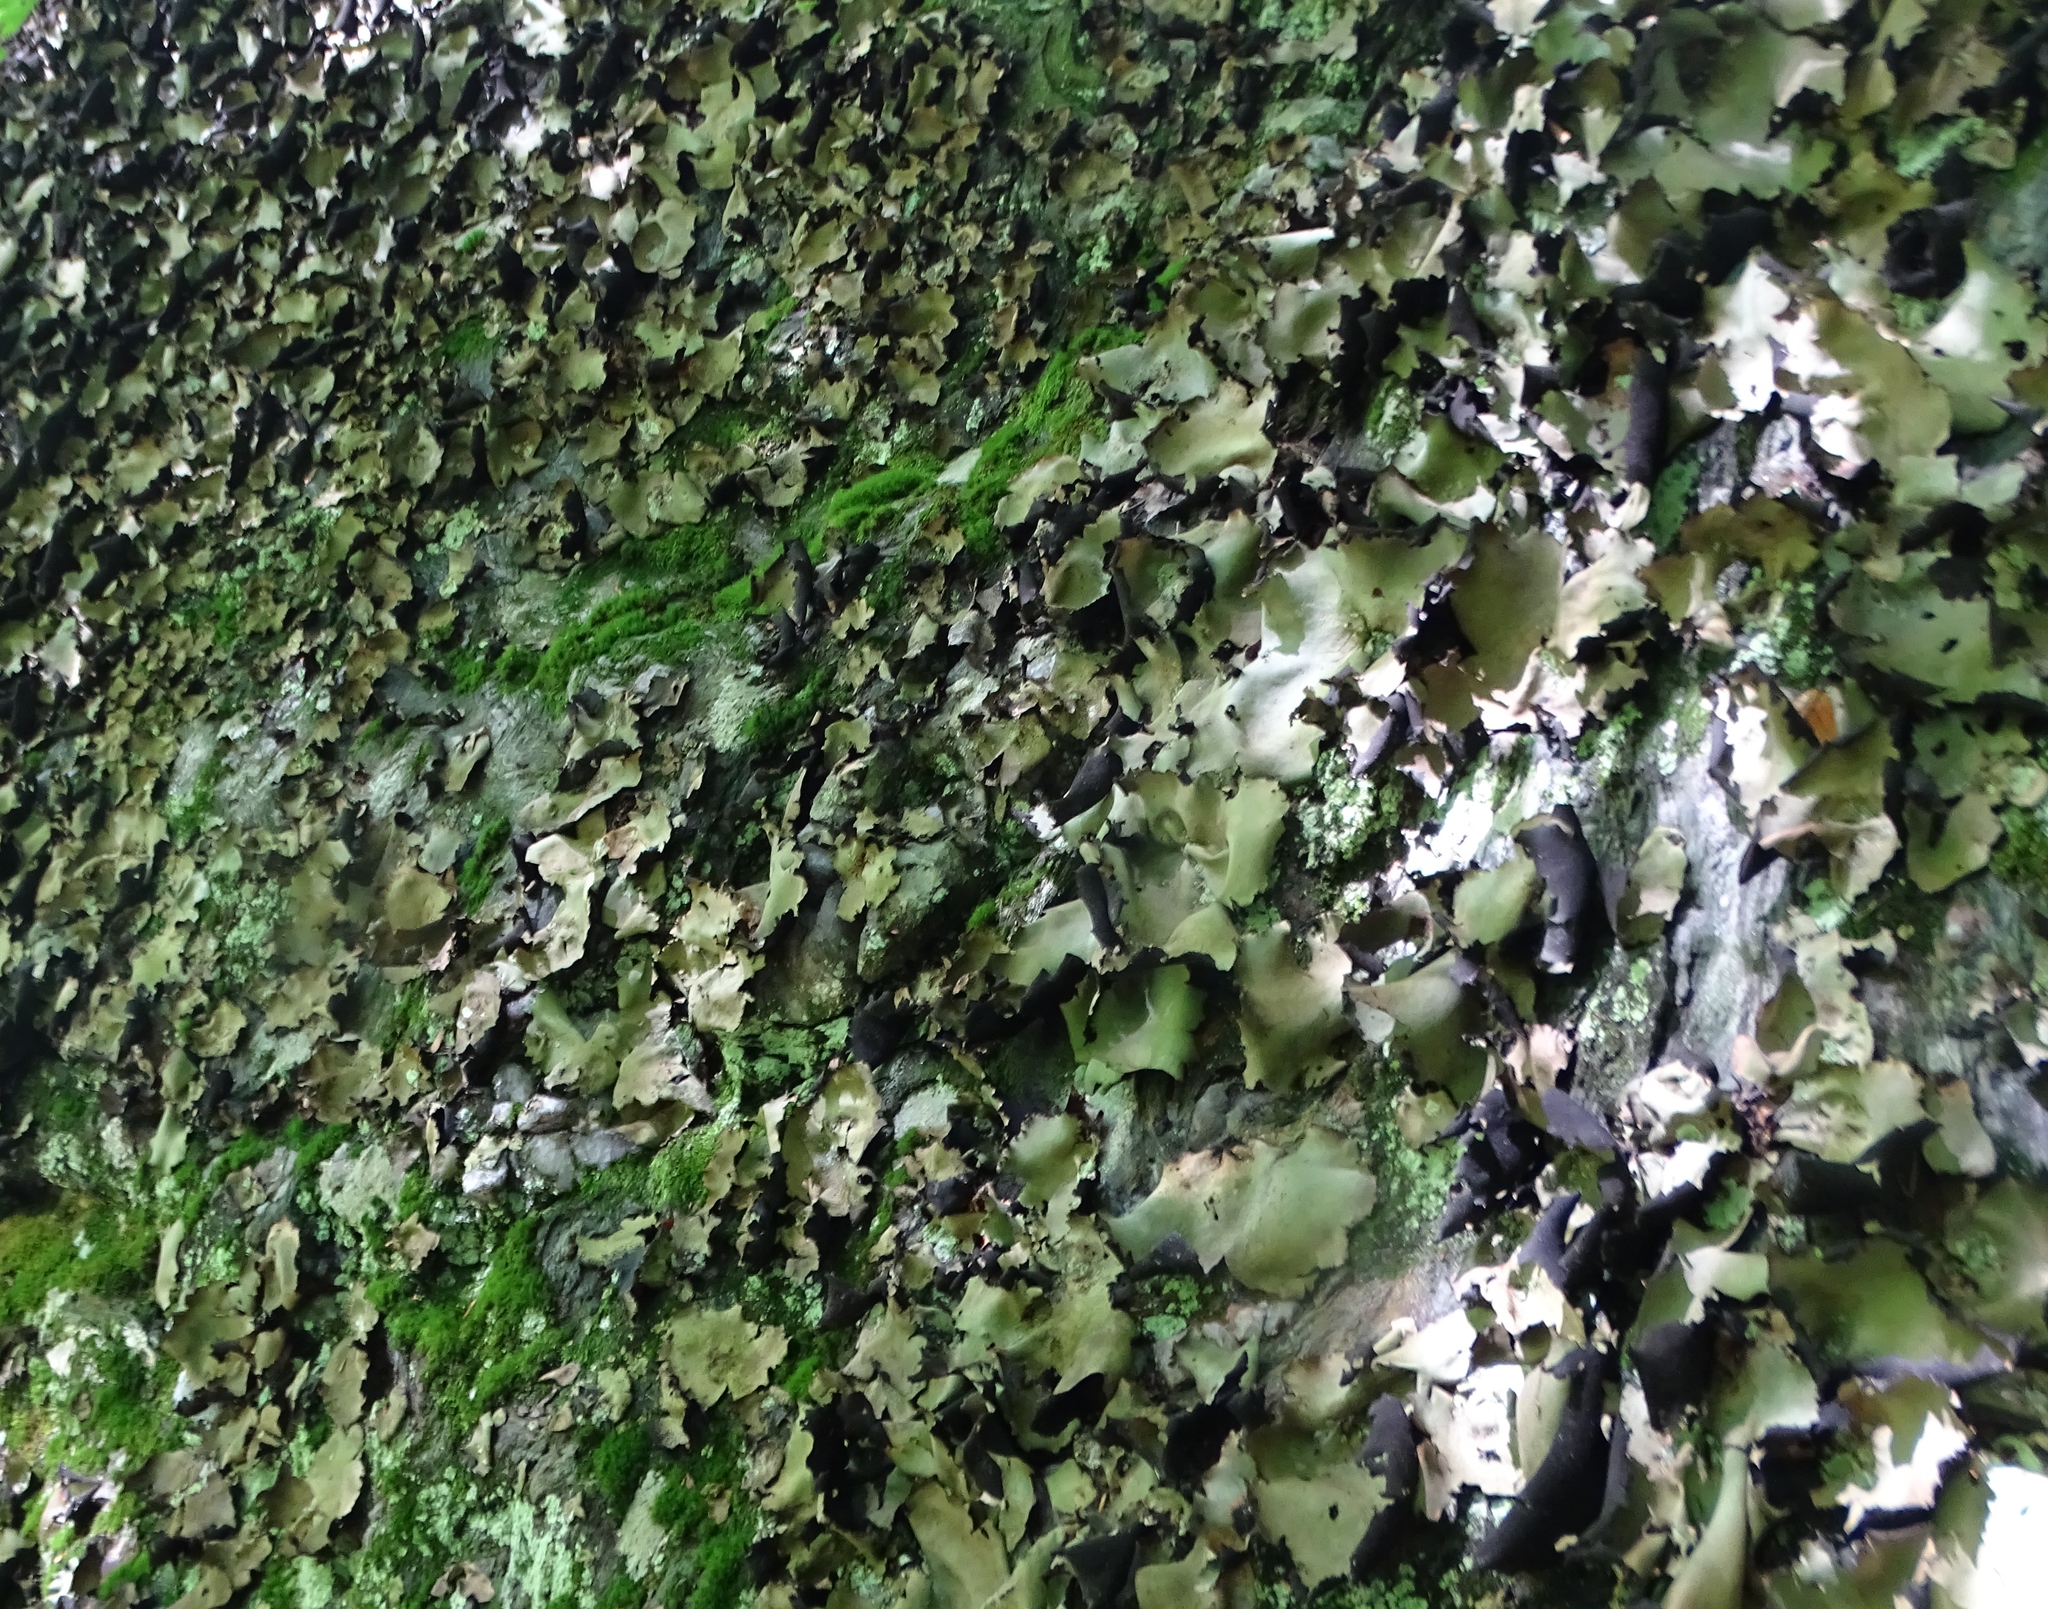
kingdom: Fungi
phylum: Ascomycota
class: Lecanoromycetes
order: Umbilicariales
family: Umbilicariaceae
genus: Umbilicaria
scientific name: Umbilicaria mammulata
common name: Smooth rock tripe
